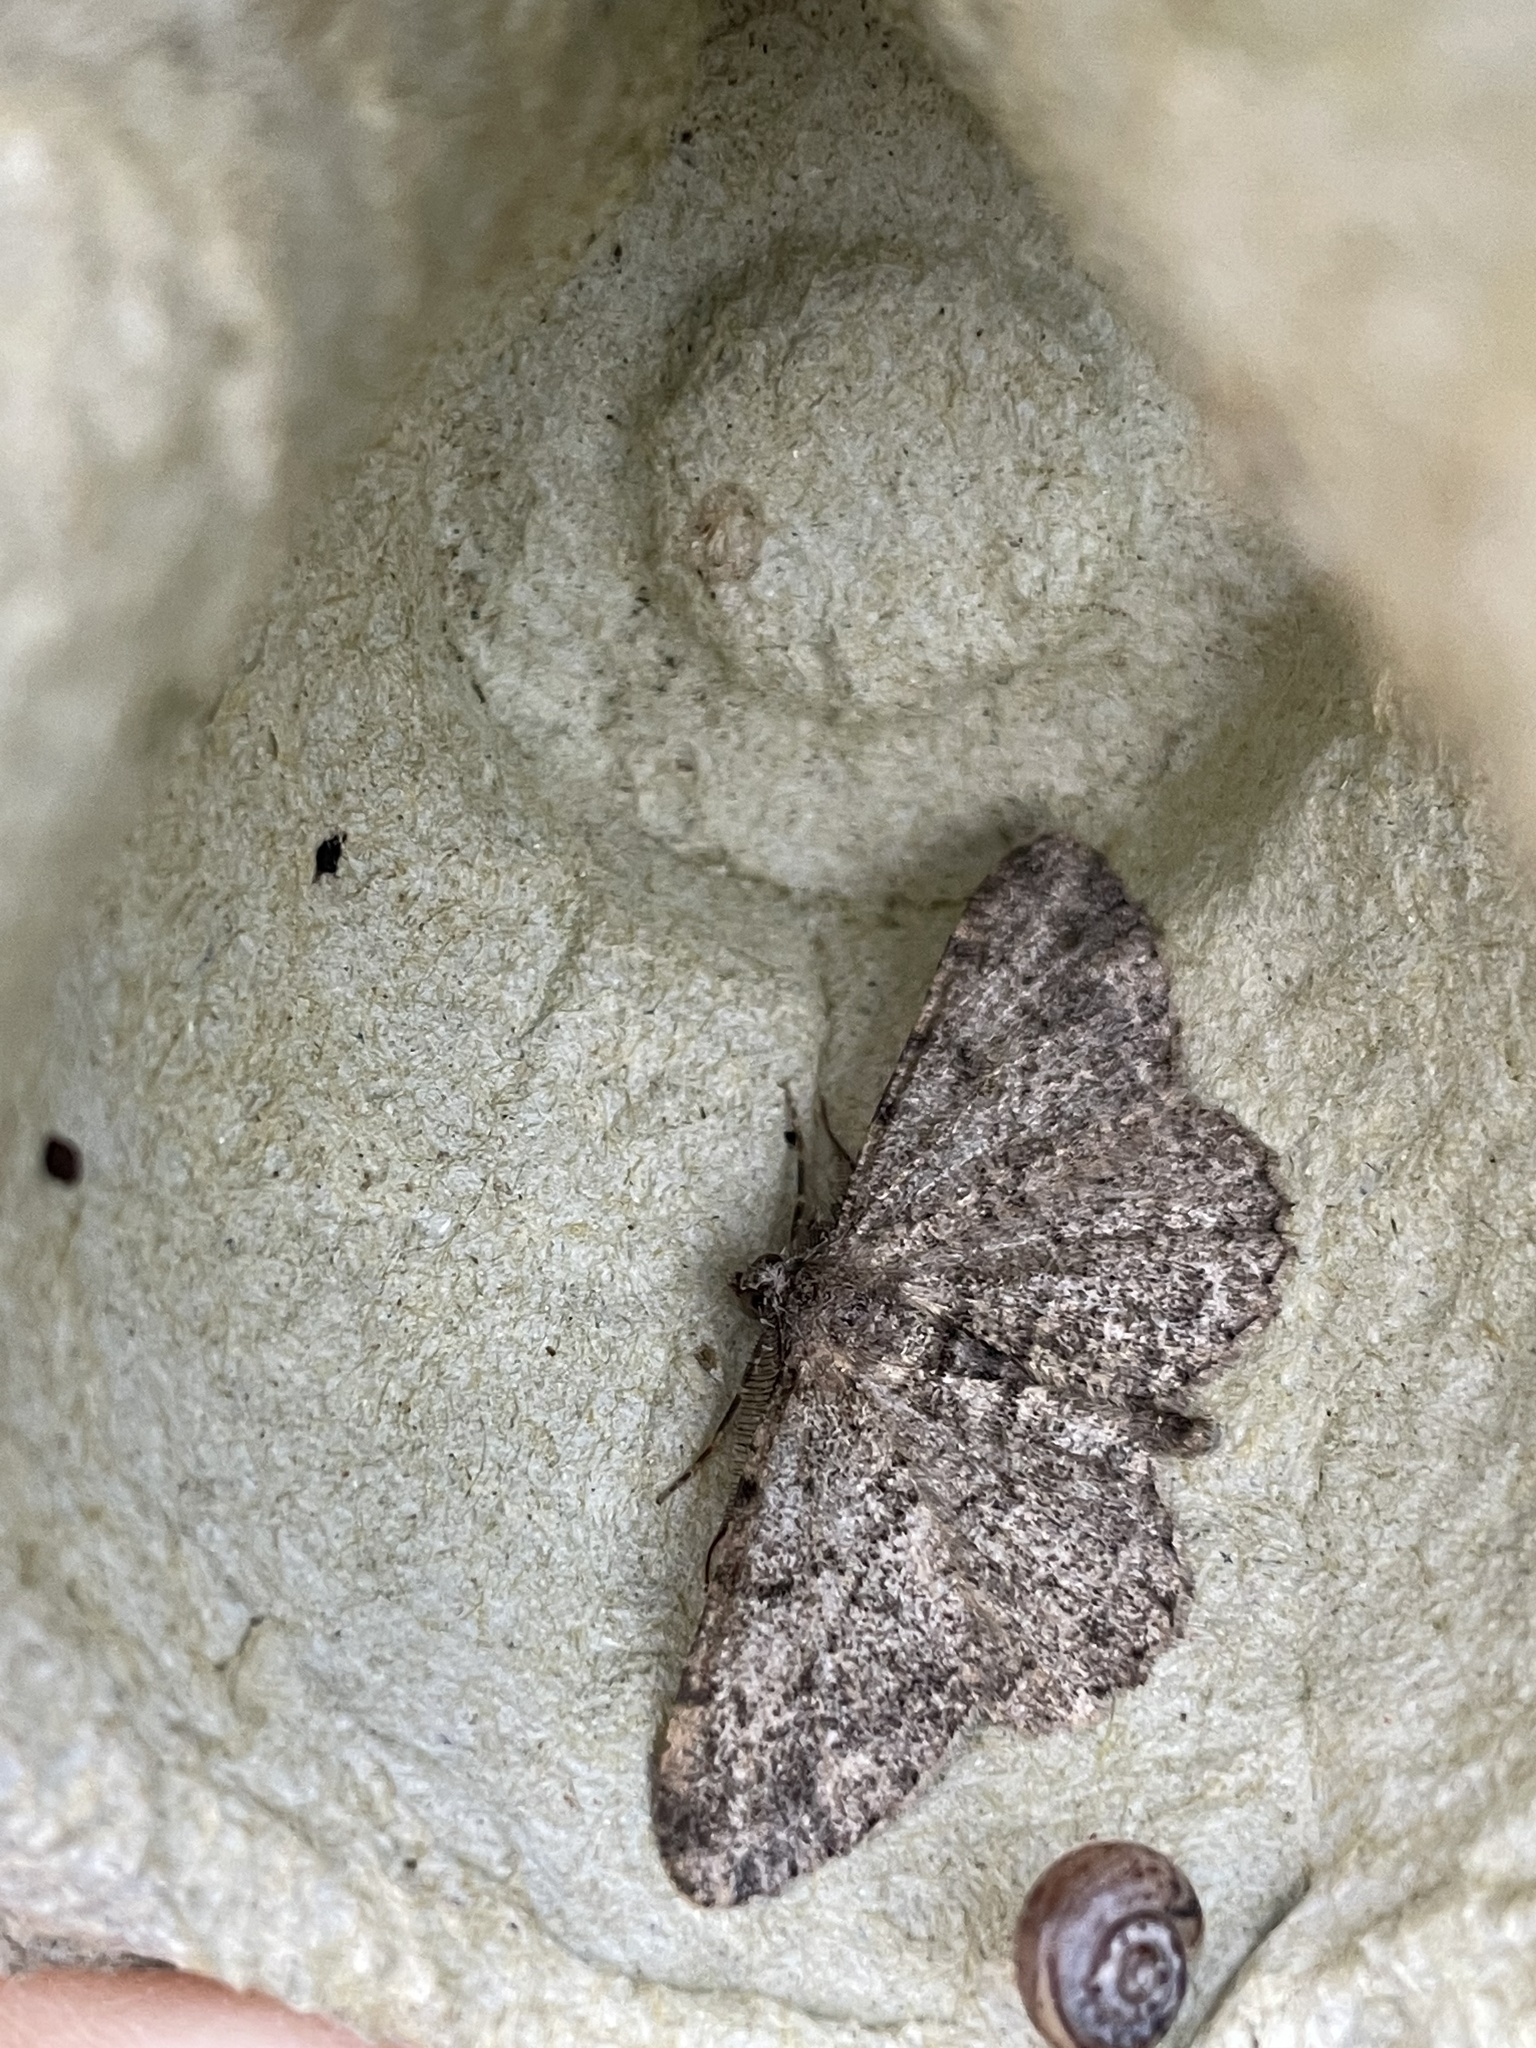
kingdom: Animalia
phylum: Arthropoda
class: Insecta
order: Lepidoptera
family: Geometridae
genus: Peribatodes
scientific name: Peribatodes rhomboidaria
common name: Willow beauty
